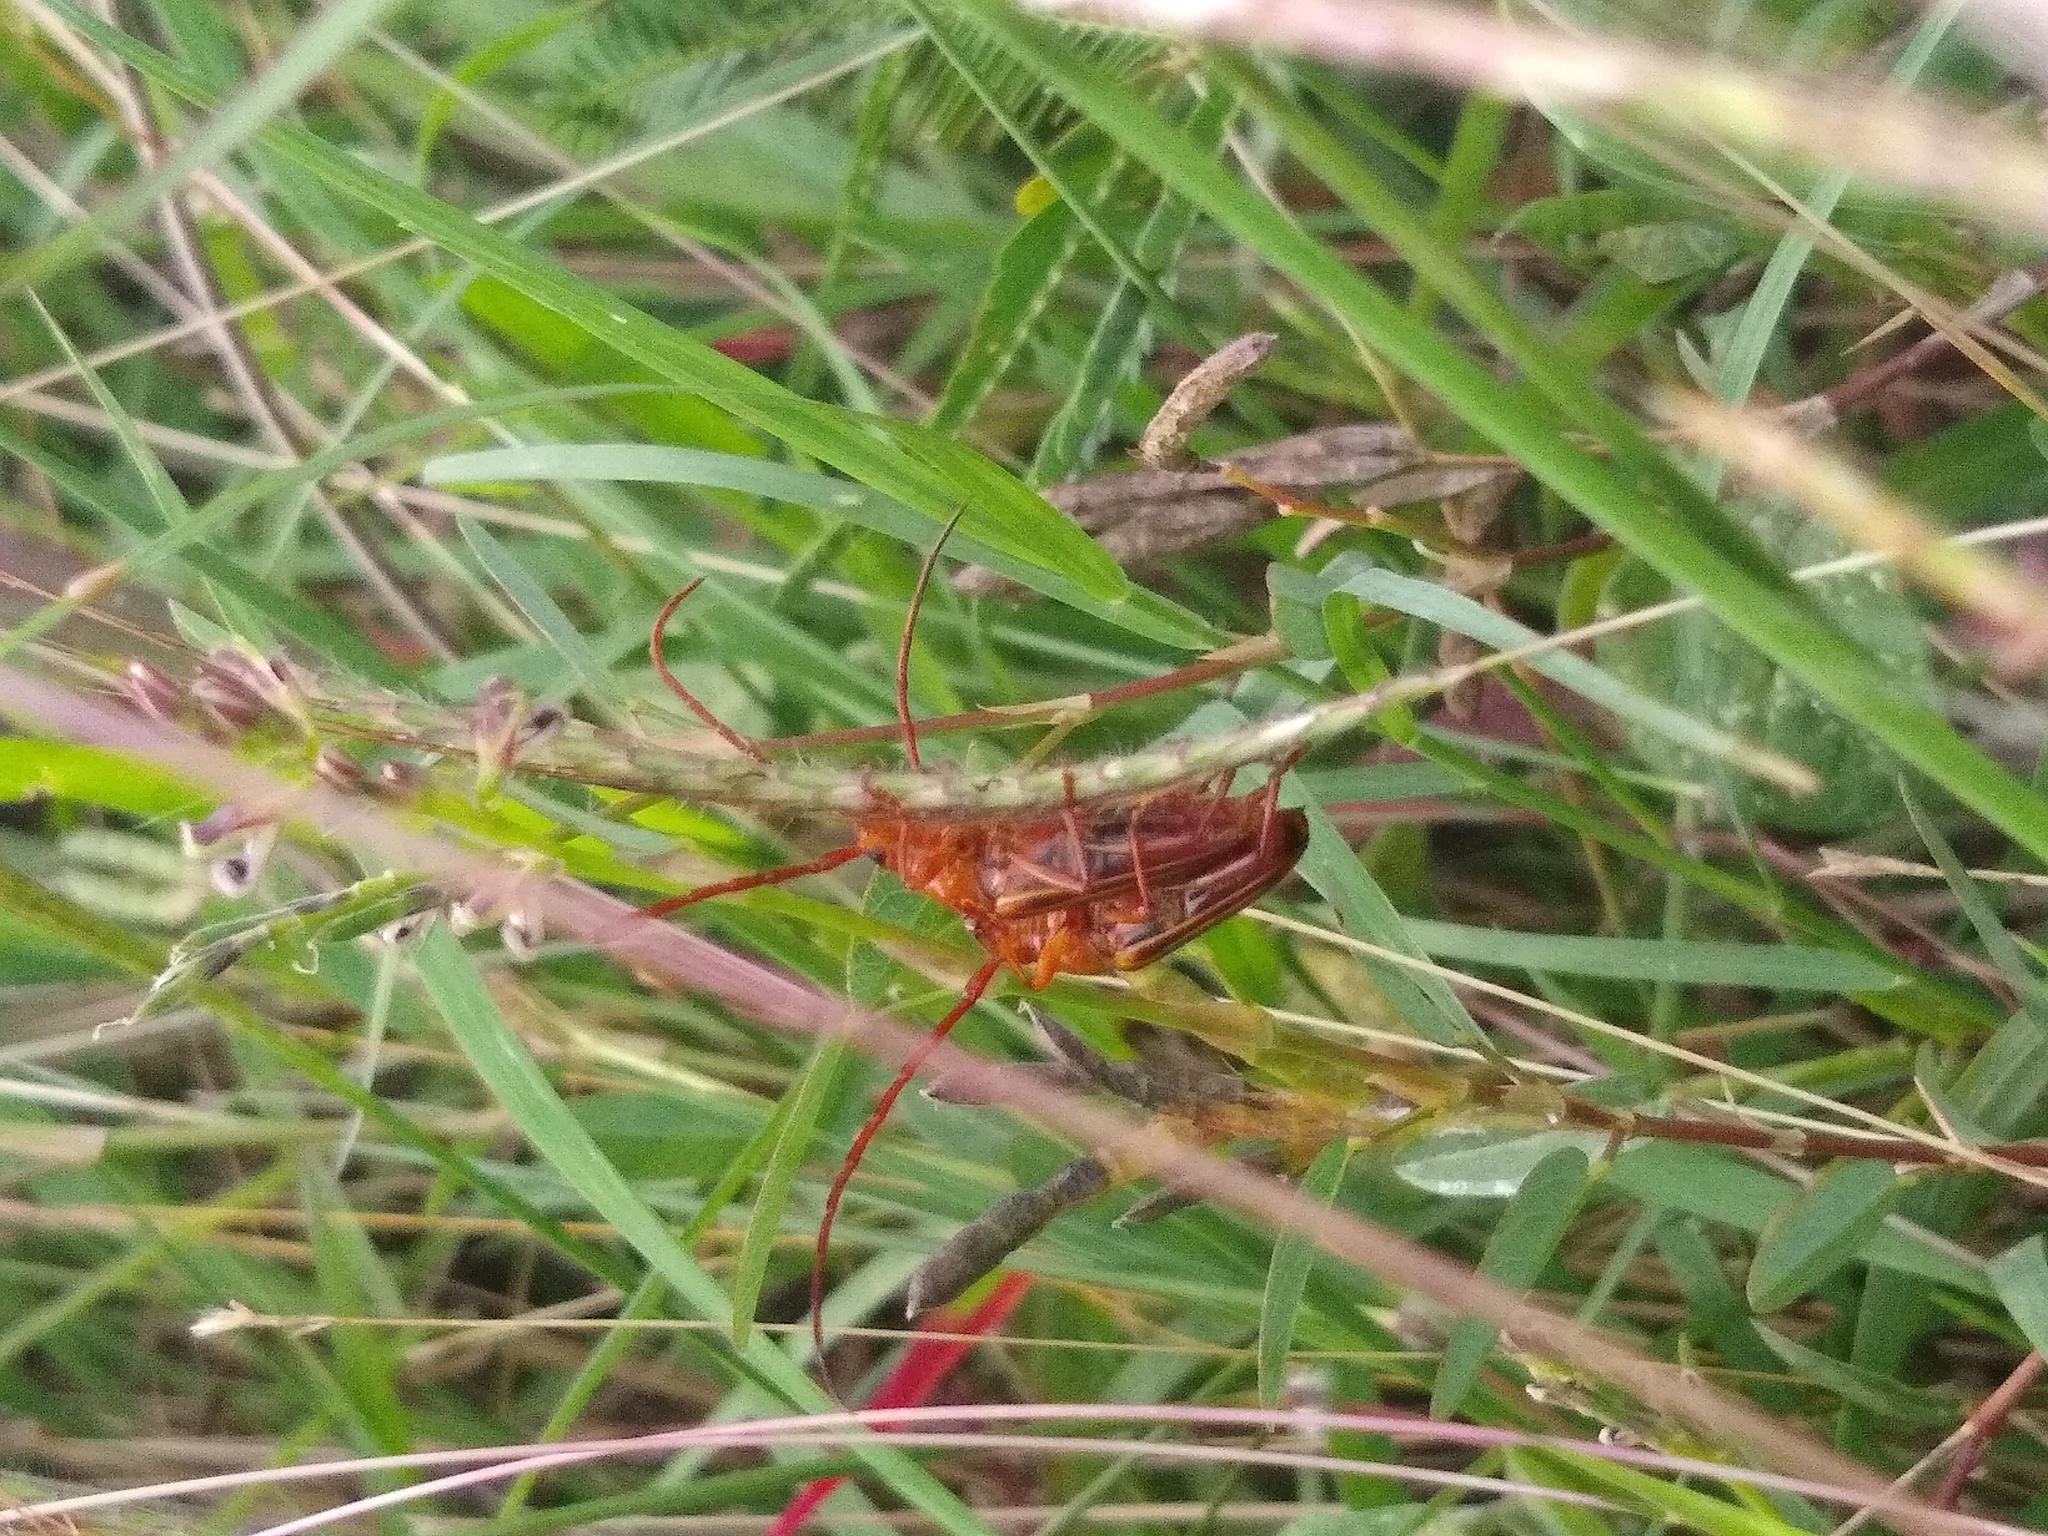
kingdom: Animalia
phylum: Arthropoda
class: Insecta
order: Coleoptera
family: Cerambycidae
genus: Oxymerus
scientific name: Oxymerus aculeatus
